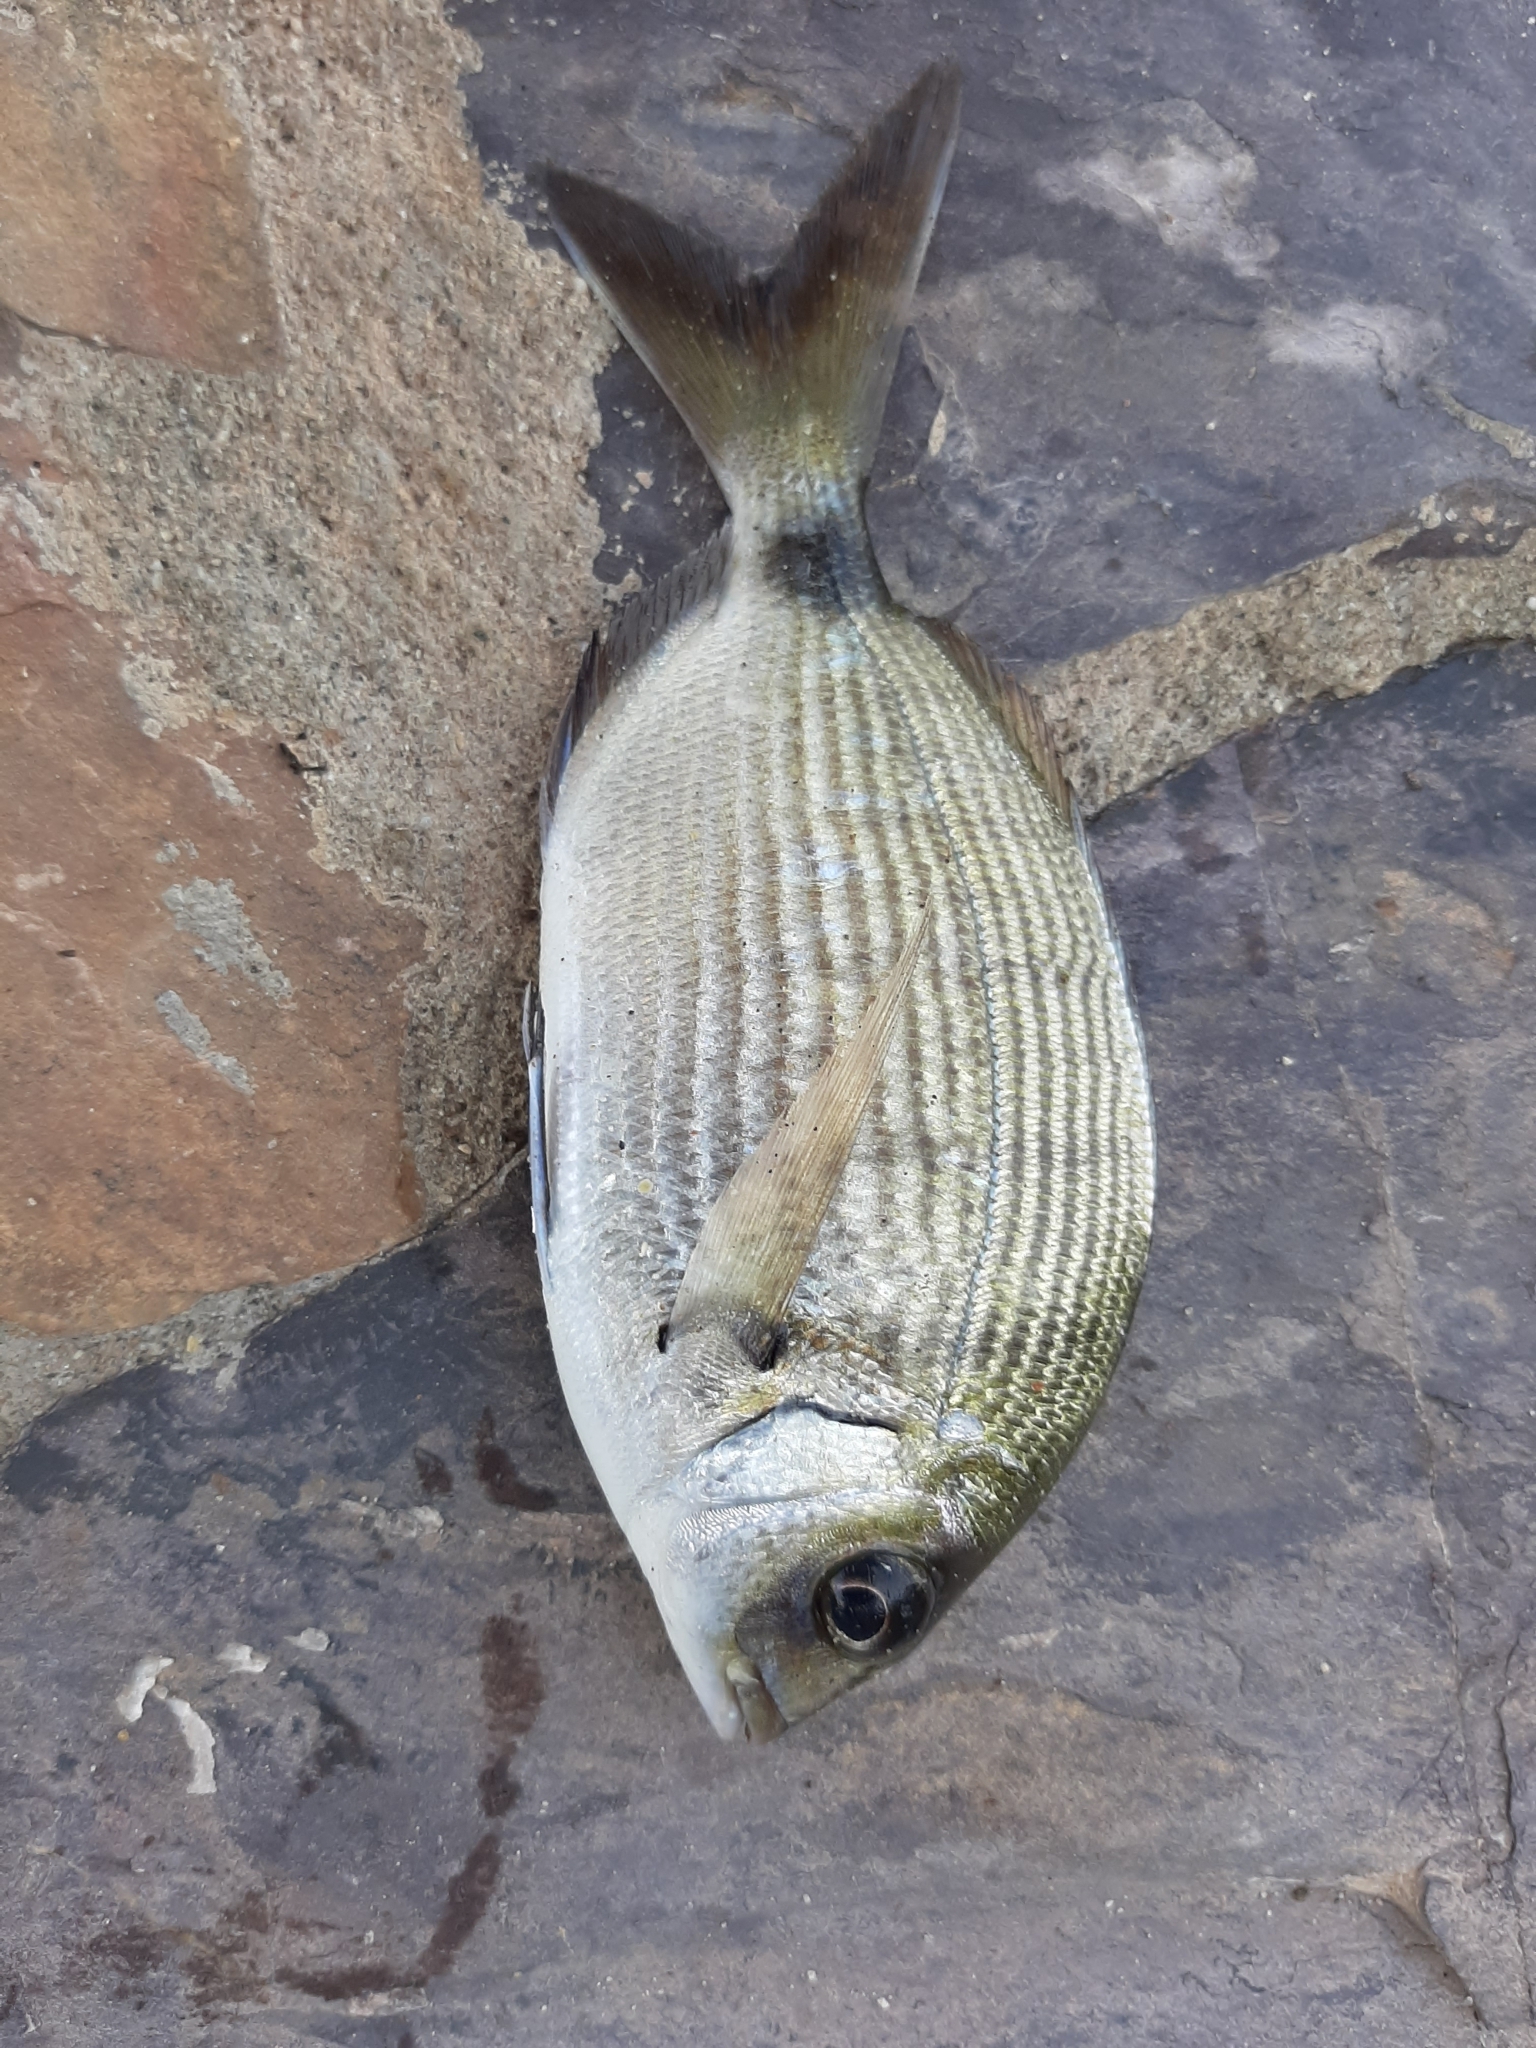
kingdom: Animalia
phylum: Chordata
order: Perciformes
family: Sparidae
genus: Diplodus
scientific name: Diplodus sargus
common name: White seabream
